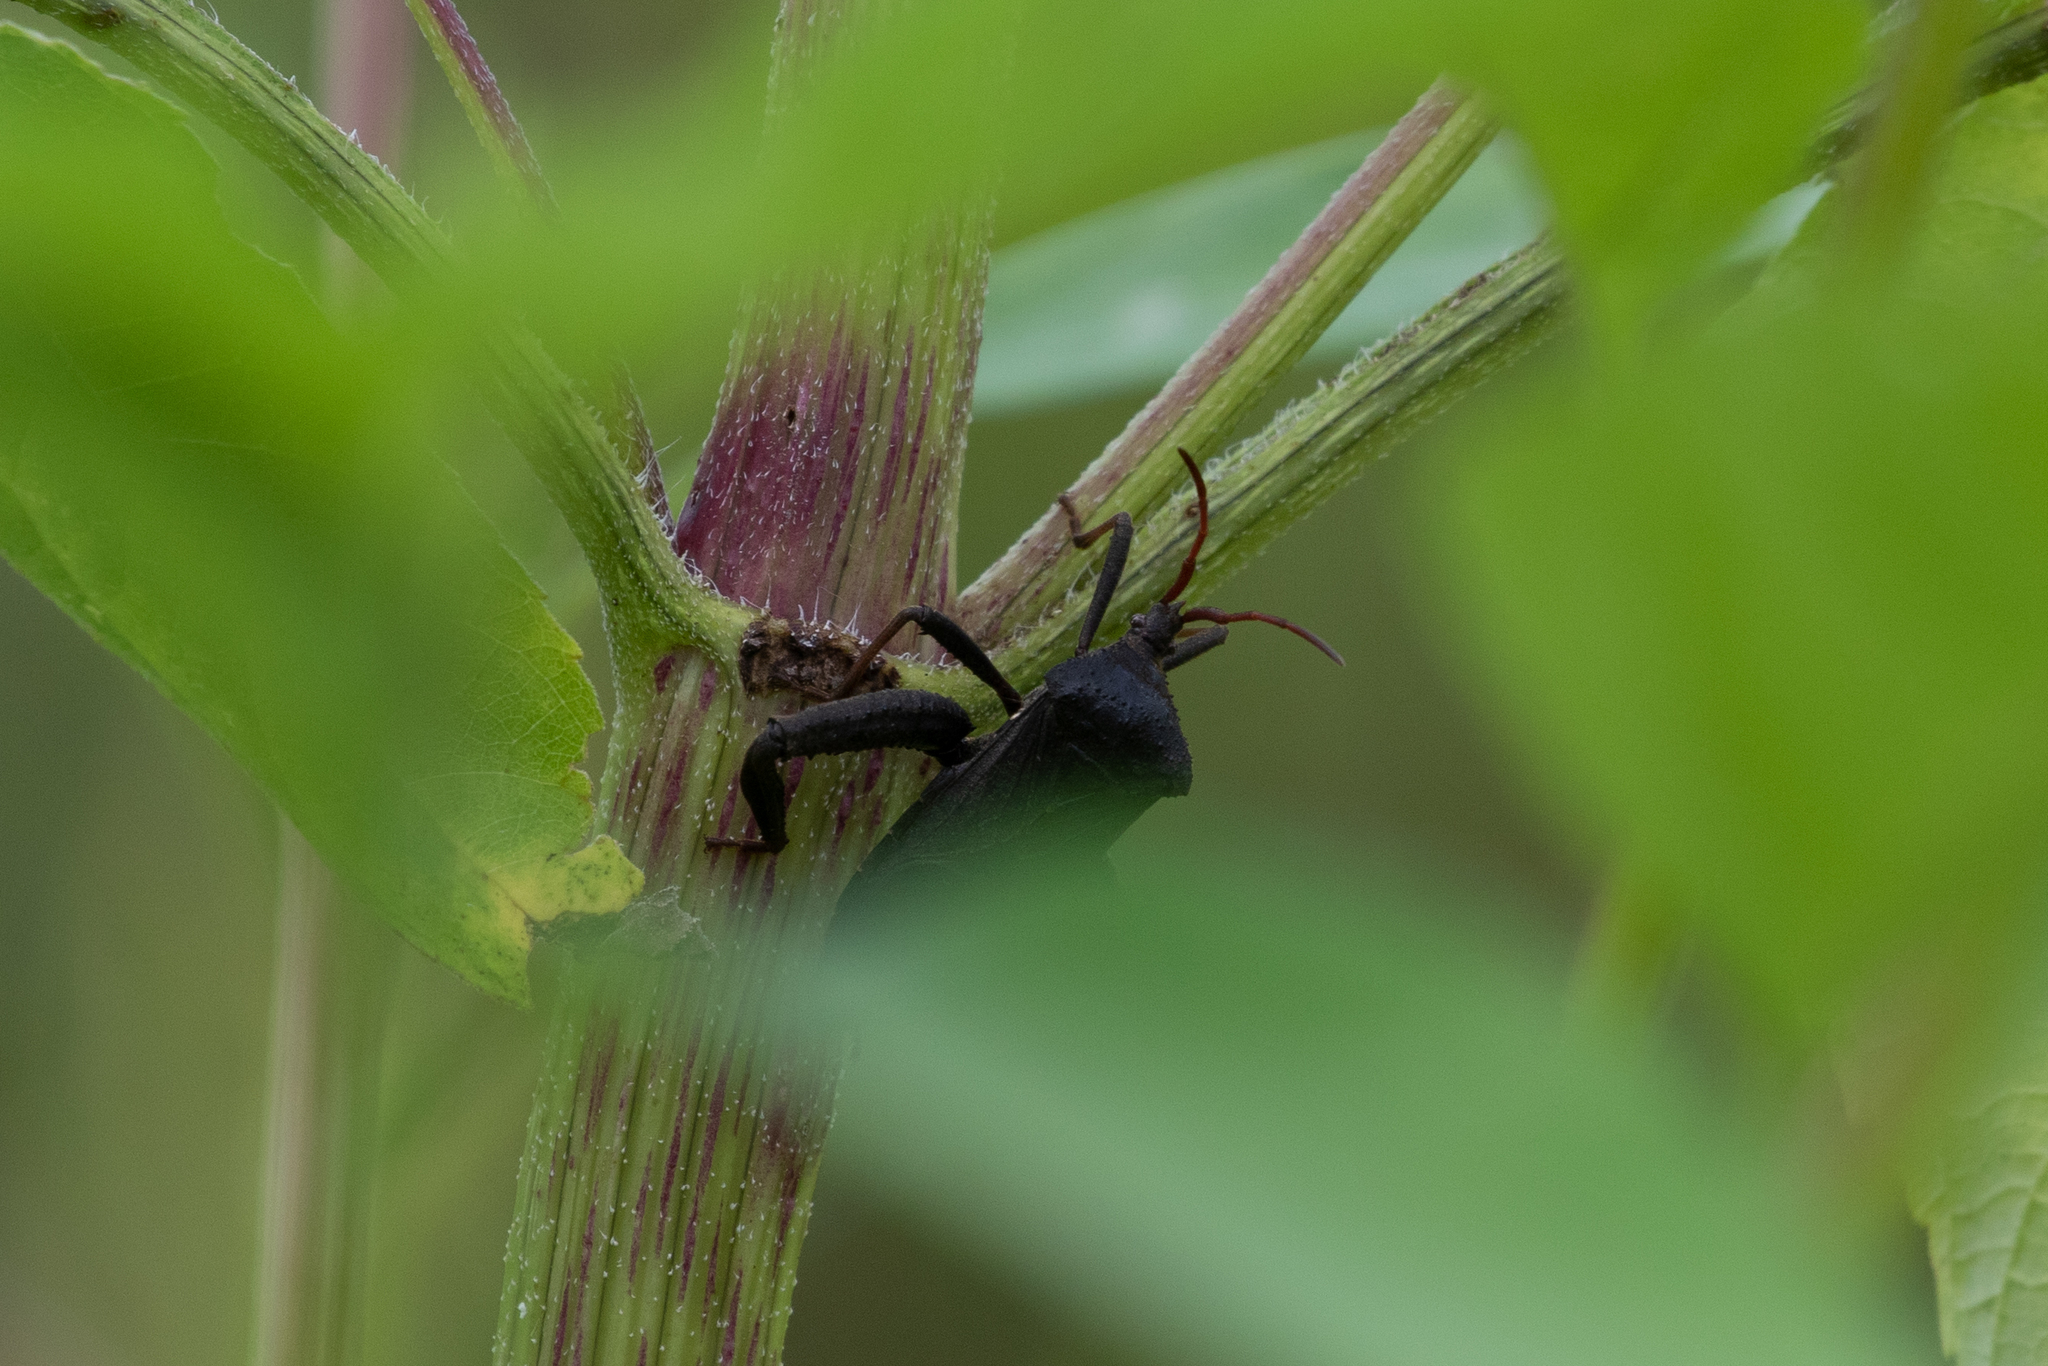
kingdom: Animalia
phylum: Arthropoda
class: Insecta
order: Hemiptera
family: Coreidae
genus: Acanthocephala
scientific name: Acanthocephala femorata
